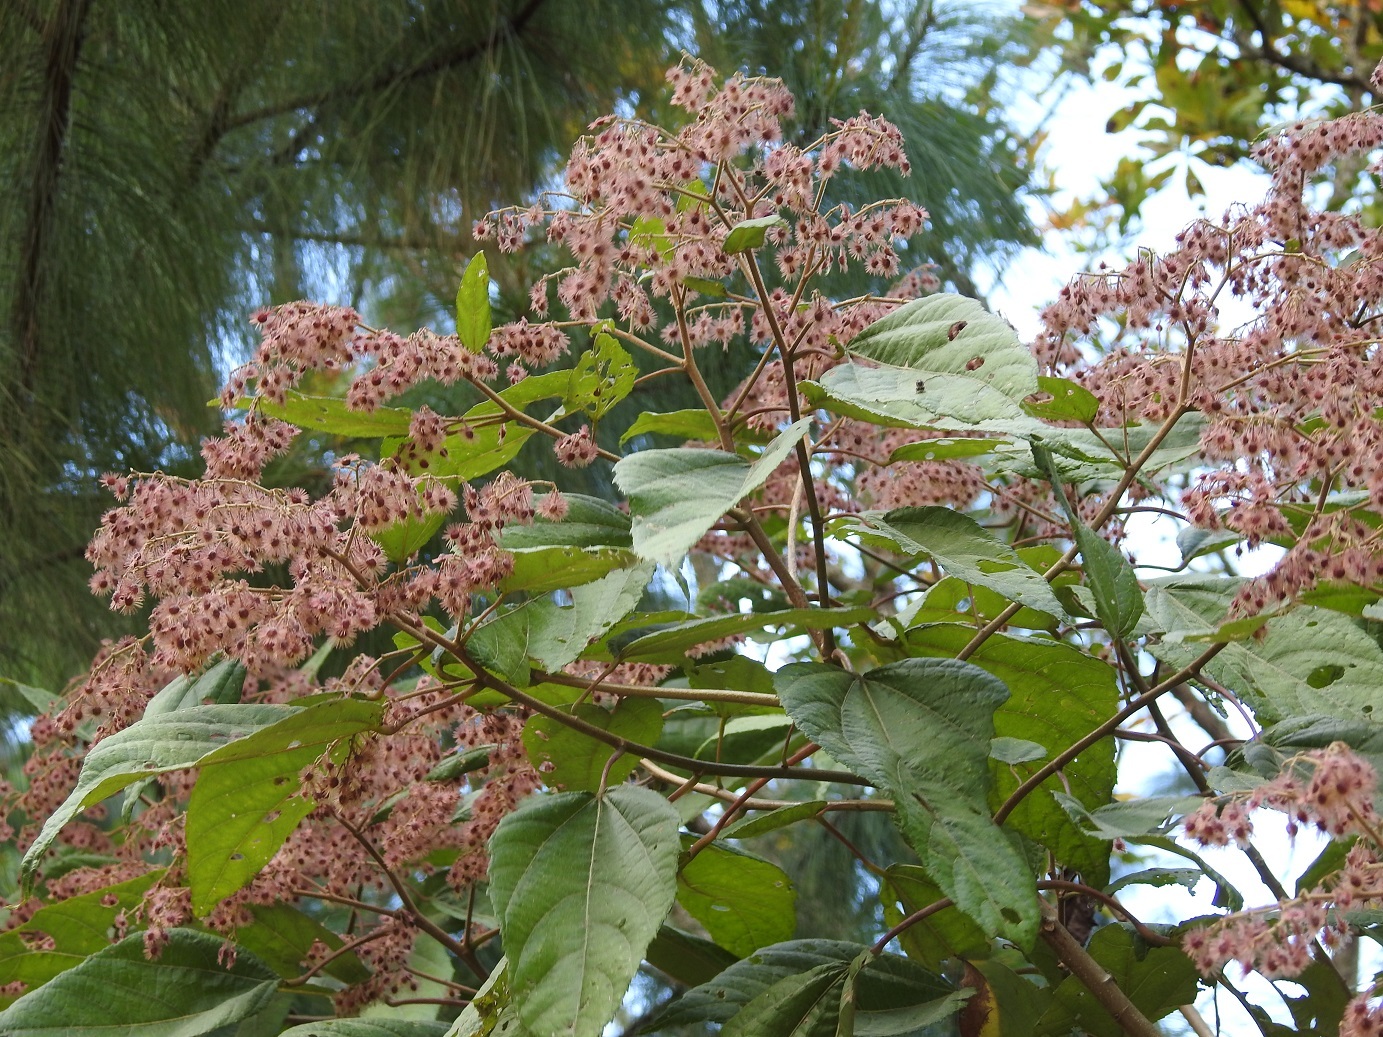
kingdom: Plantae
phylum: Tracheophyta
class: Magnoliopsida
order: Malvales
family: Malvaceae
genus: Heliocarpus
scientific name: Heliocarpus terebinthinaceus
